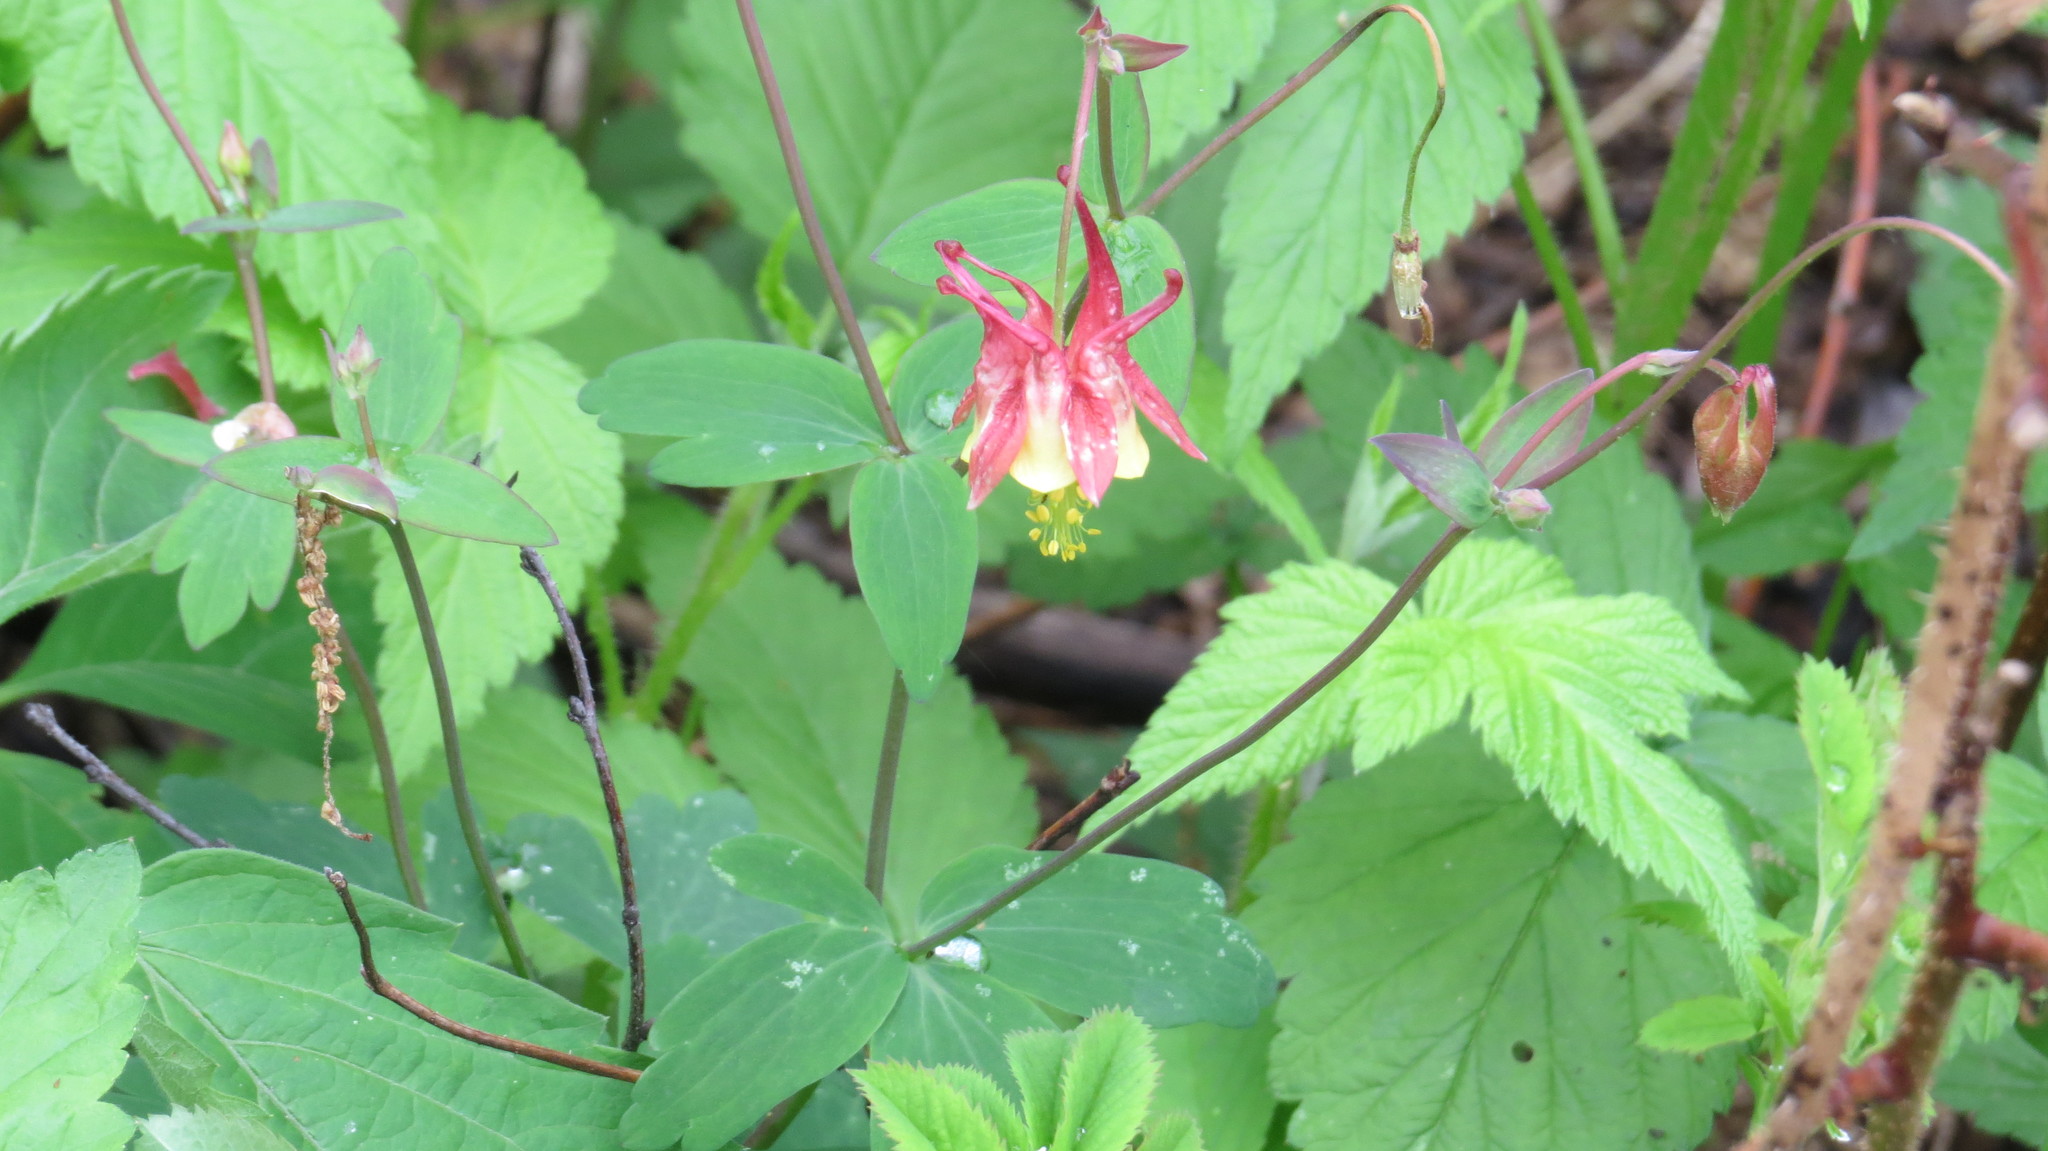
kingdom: Plantae
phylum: Tracheophyta
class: Magnoliopsida
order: Ranunculales
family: Ranunculaceae
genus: Aquilegia
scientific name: Aquilegia canadensis
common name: American columbine
